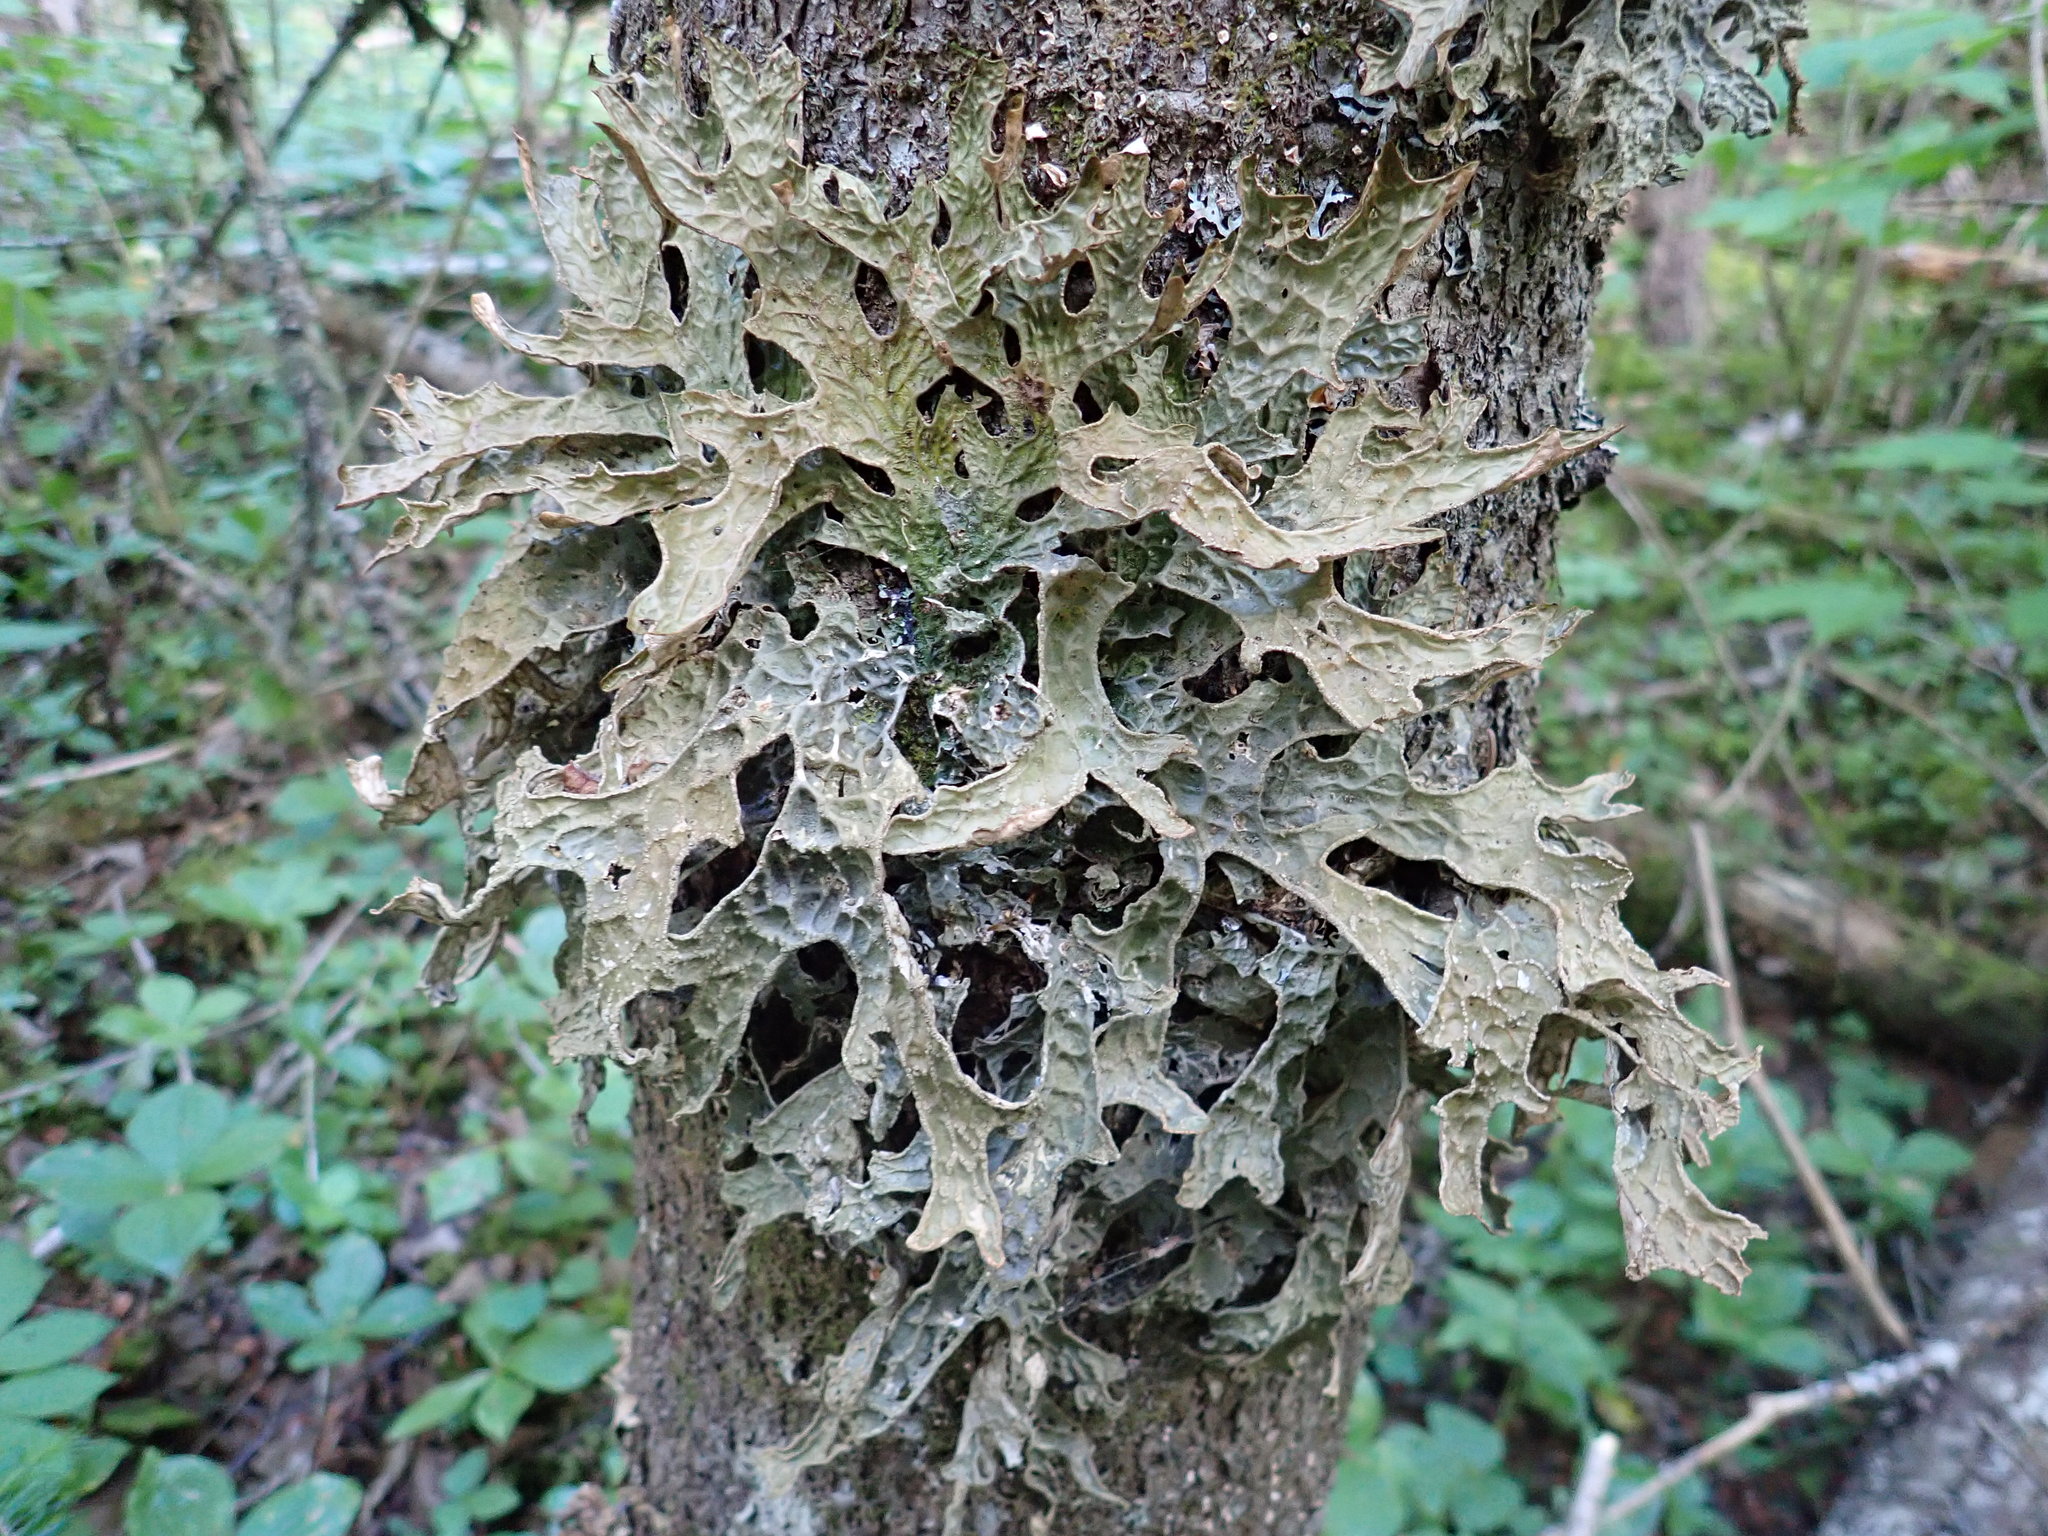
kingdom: Fungi
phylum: Ascomycota
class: Lecanoromycetes
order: Peltigerales
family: Lobariaceae
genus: Lobaria
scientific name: Lobaria pulmonaria
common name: Lungwort
